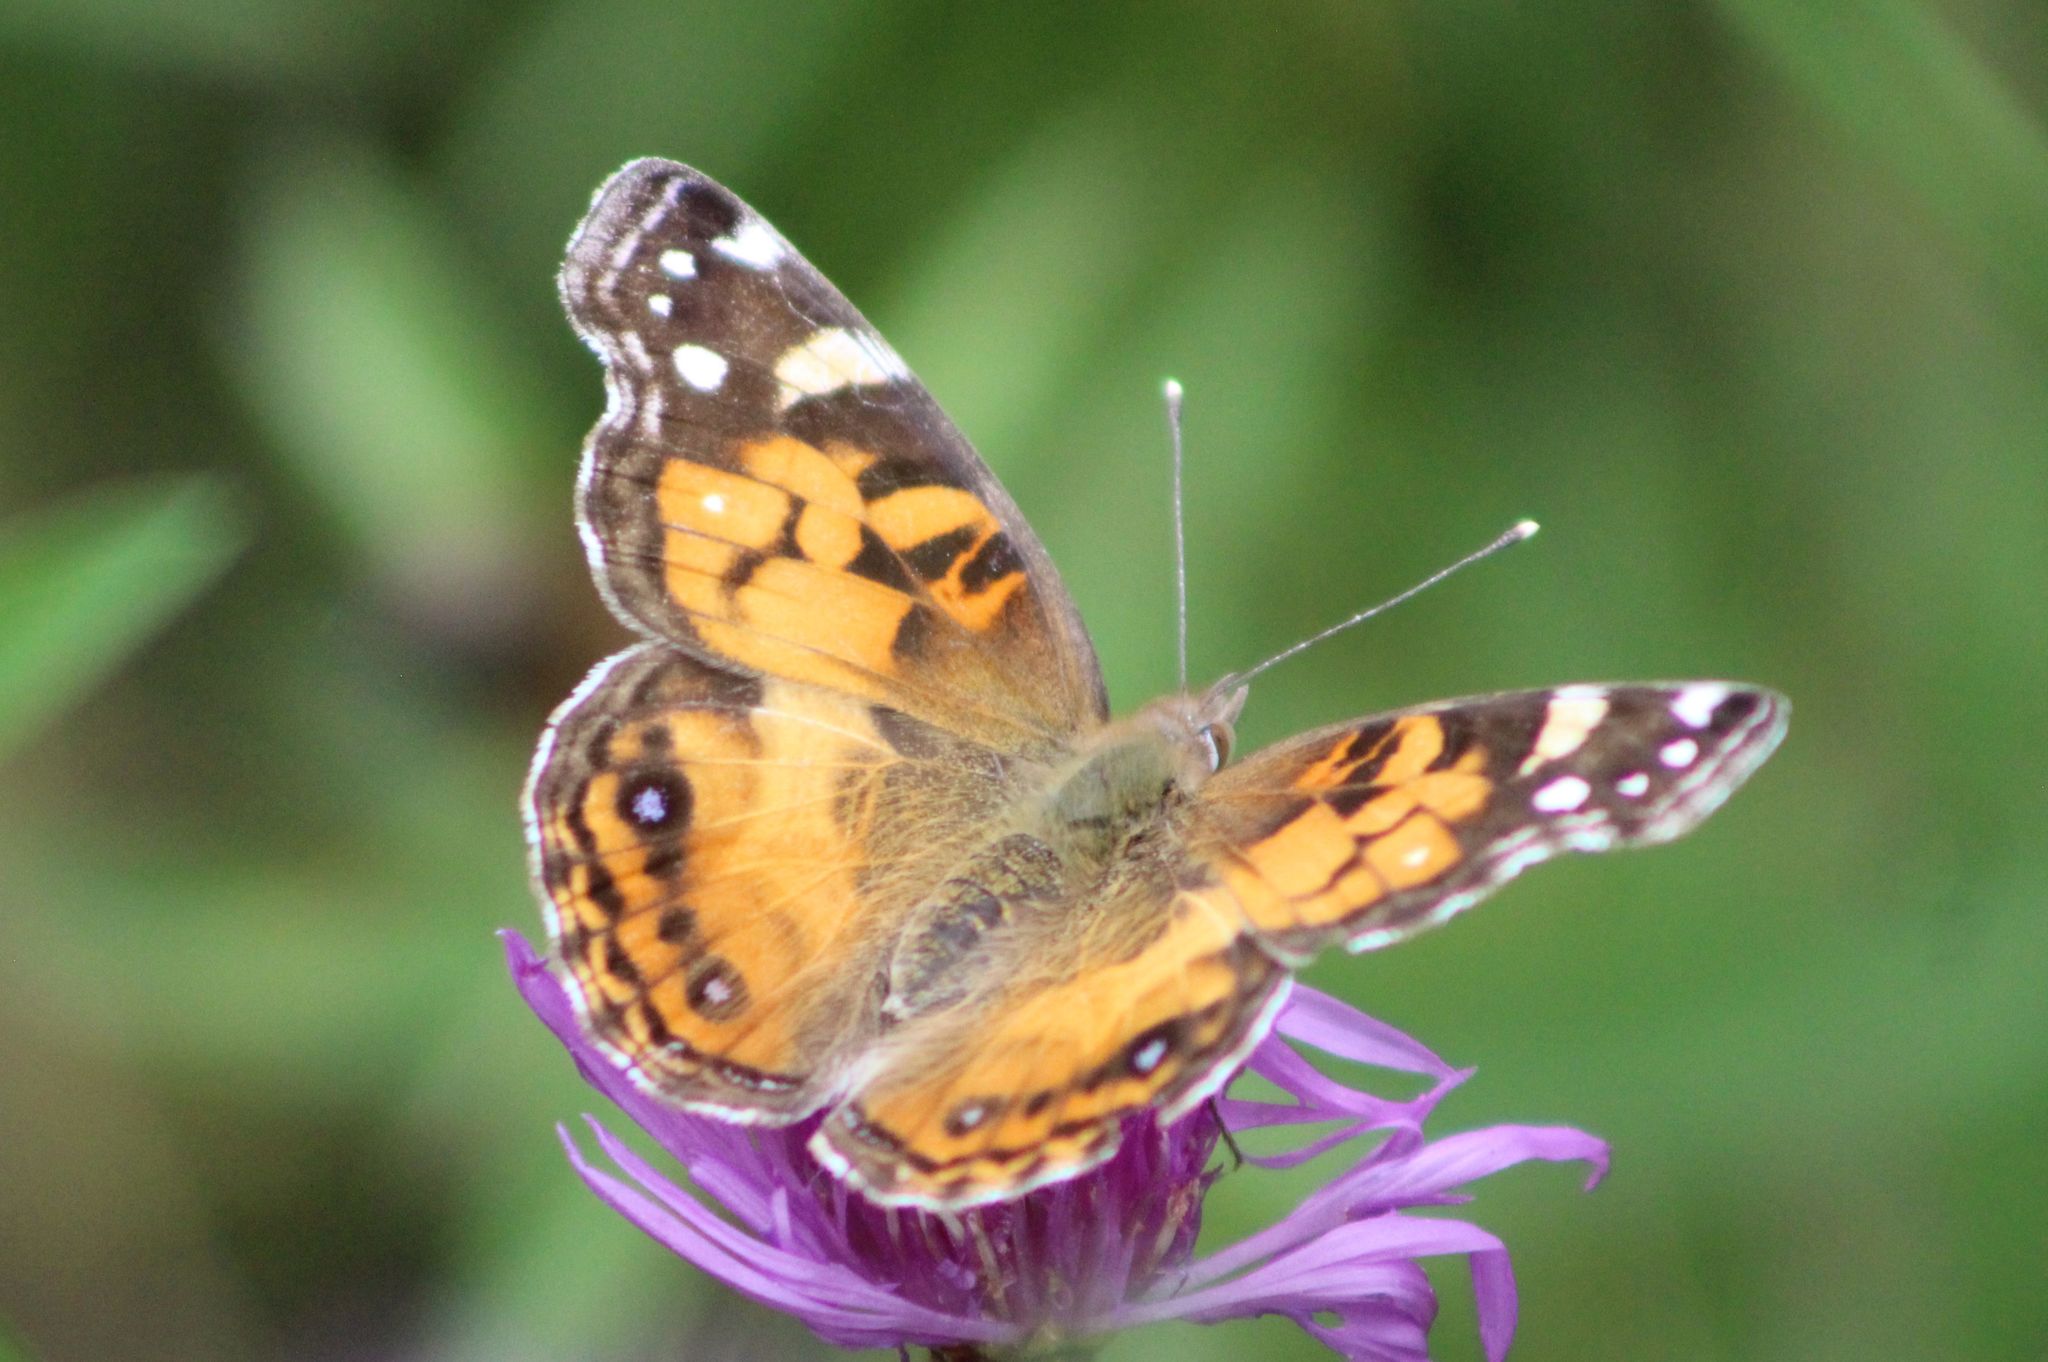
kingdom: Animalia
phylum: Arthropoda
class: Insecta
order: Lepidoptera
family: Nymphalidae
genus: Vanessa
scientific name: Vanessa virginiensis
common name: American lady
